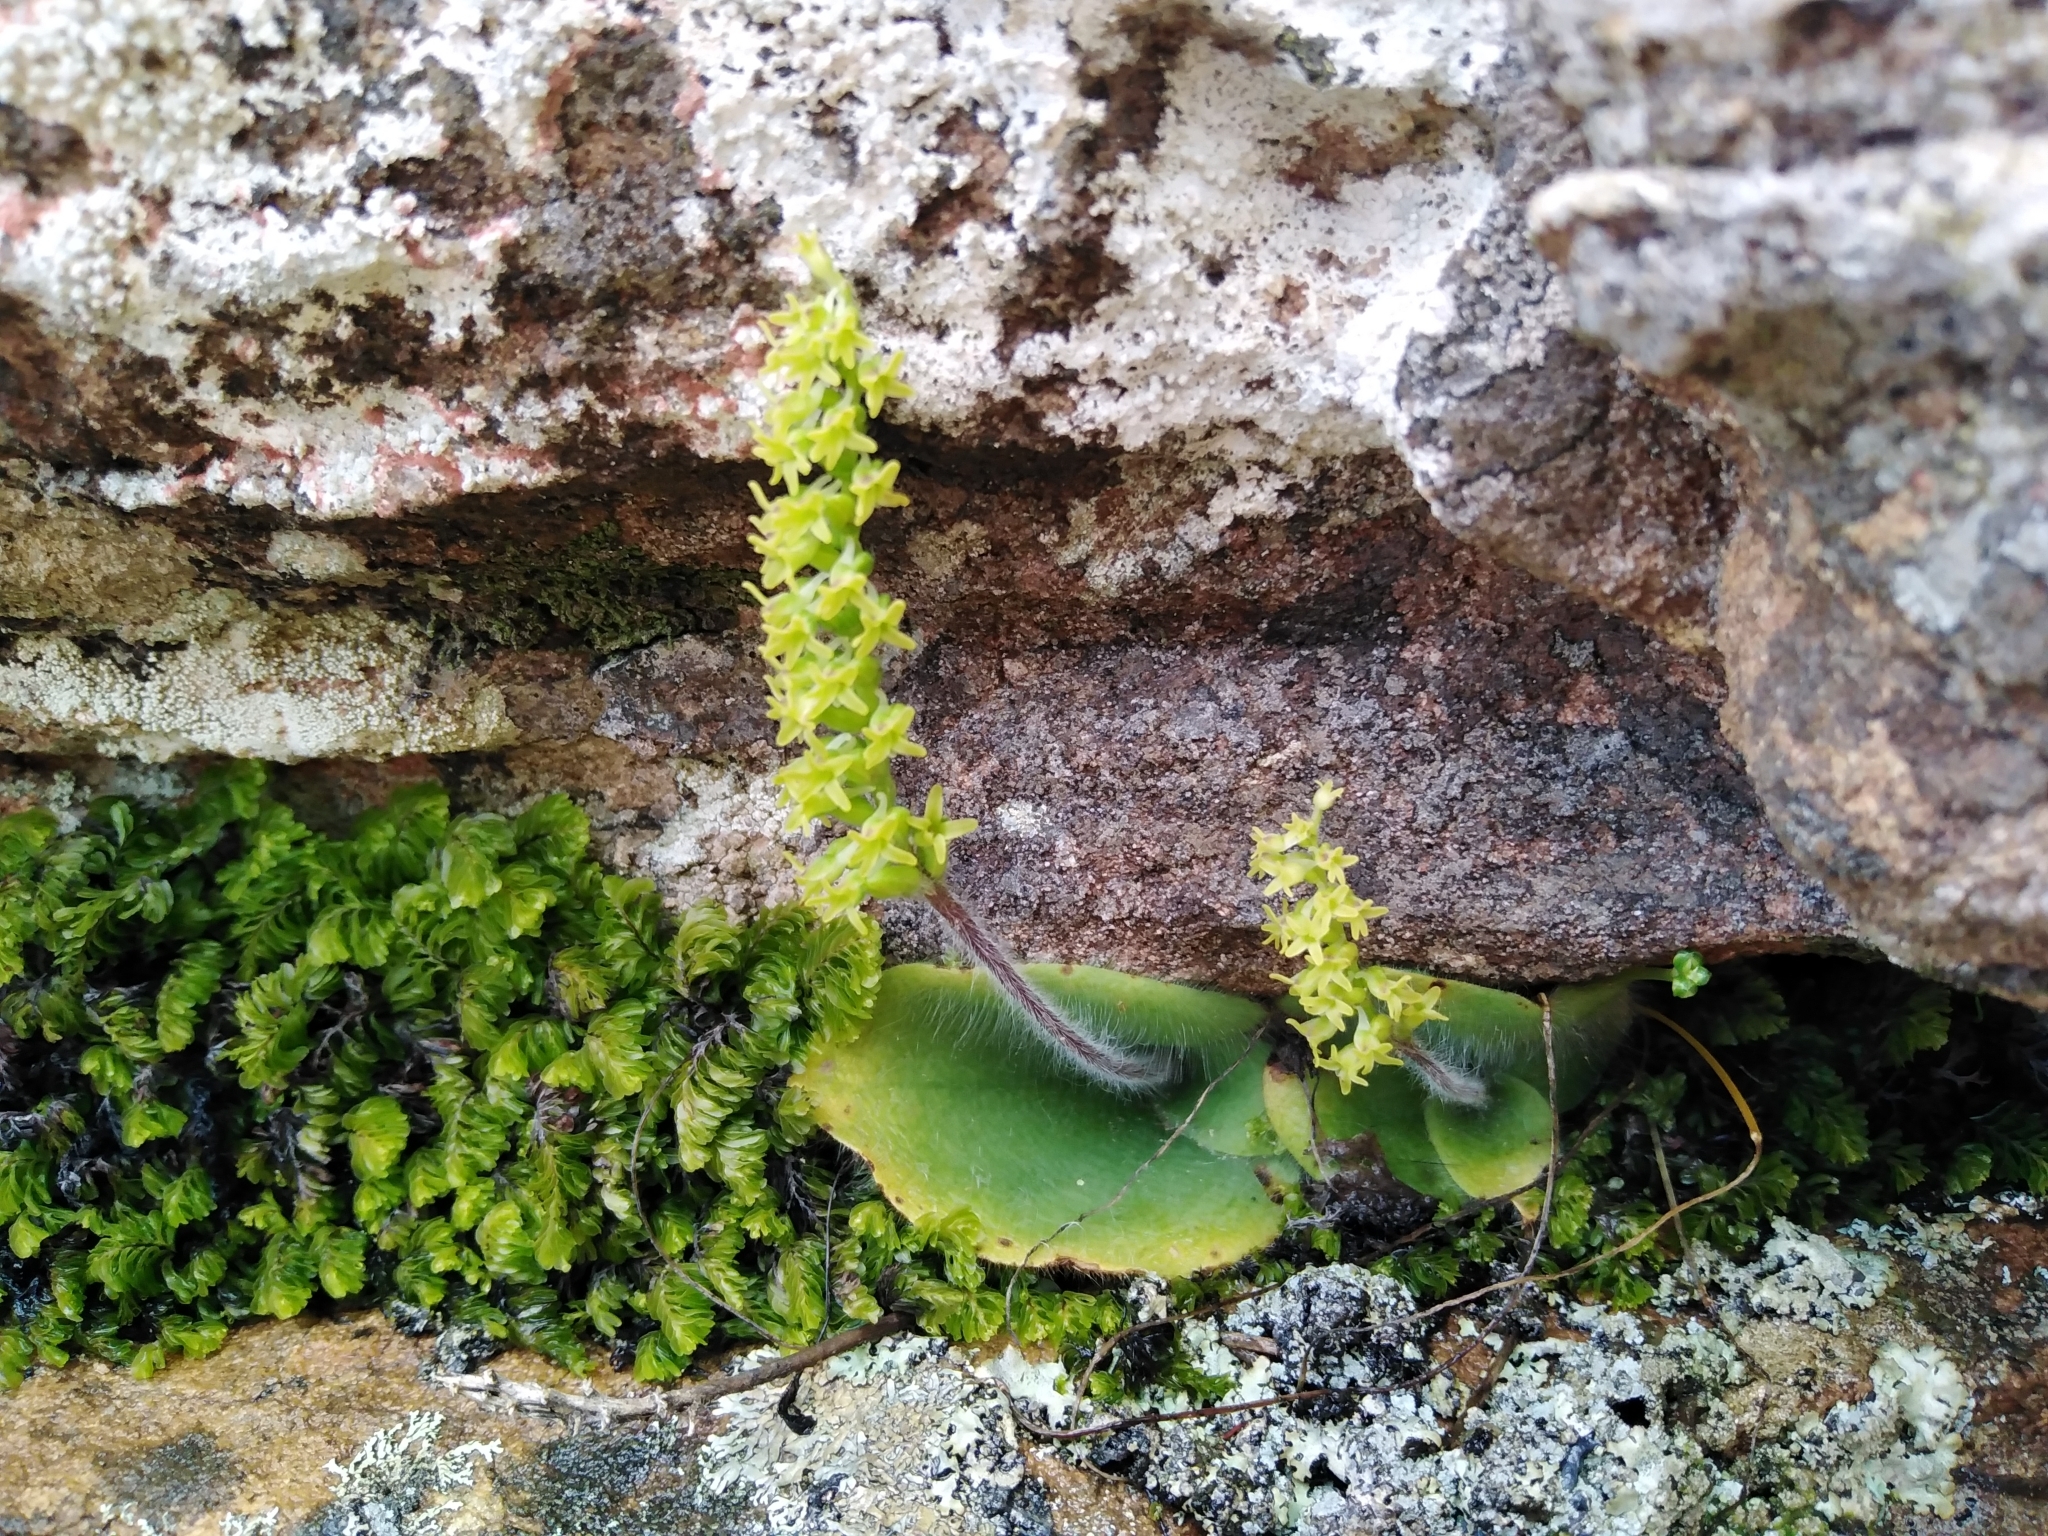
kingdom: Plantae
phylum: Tracheophyta
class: Liliopsida
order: Asparagales
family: Orchidaceae
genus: Holothrix
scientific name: Holothrix condensata
